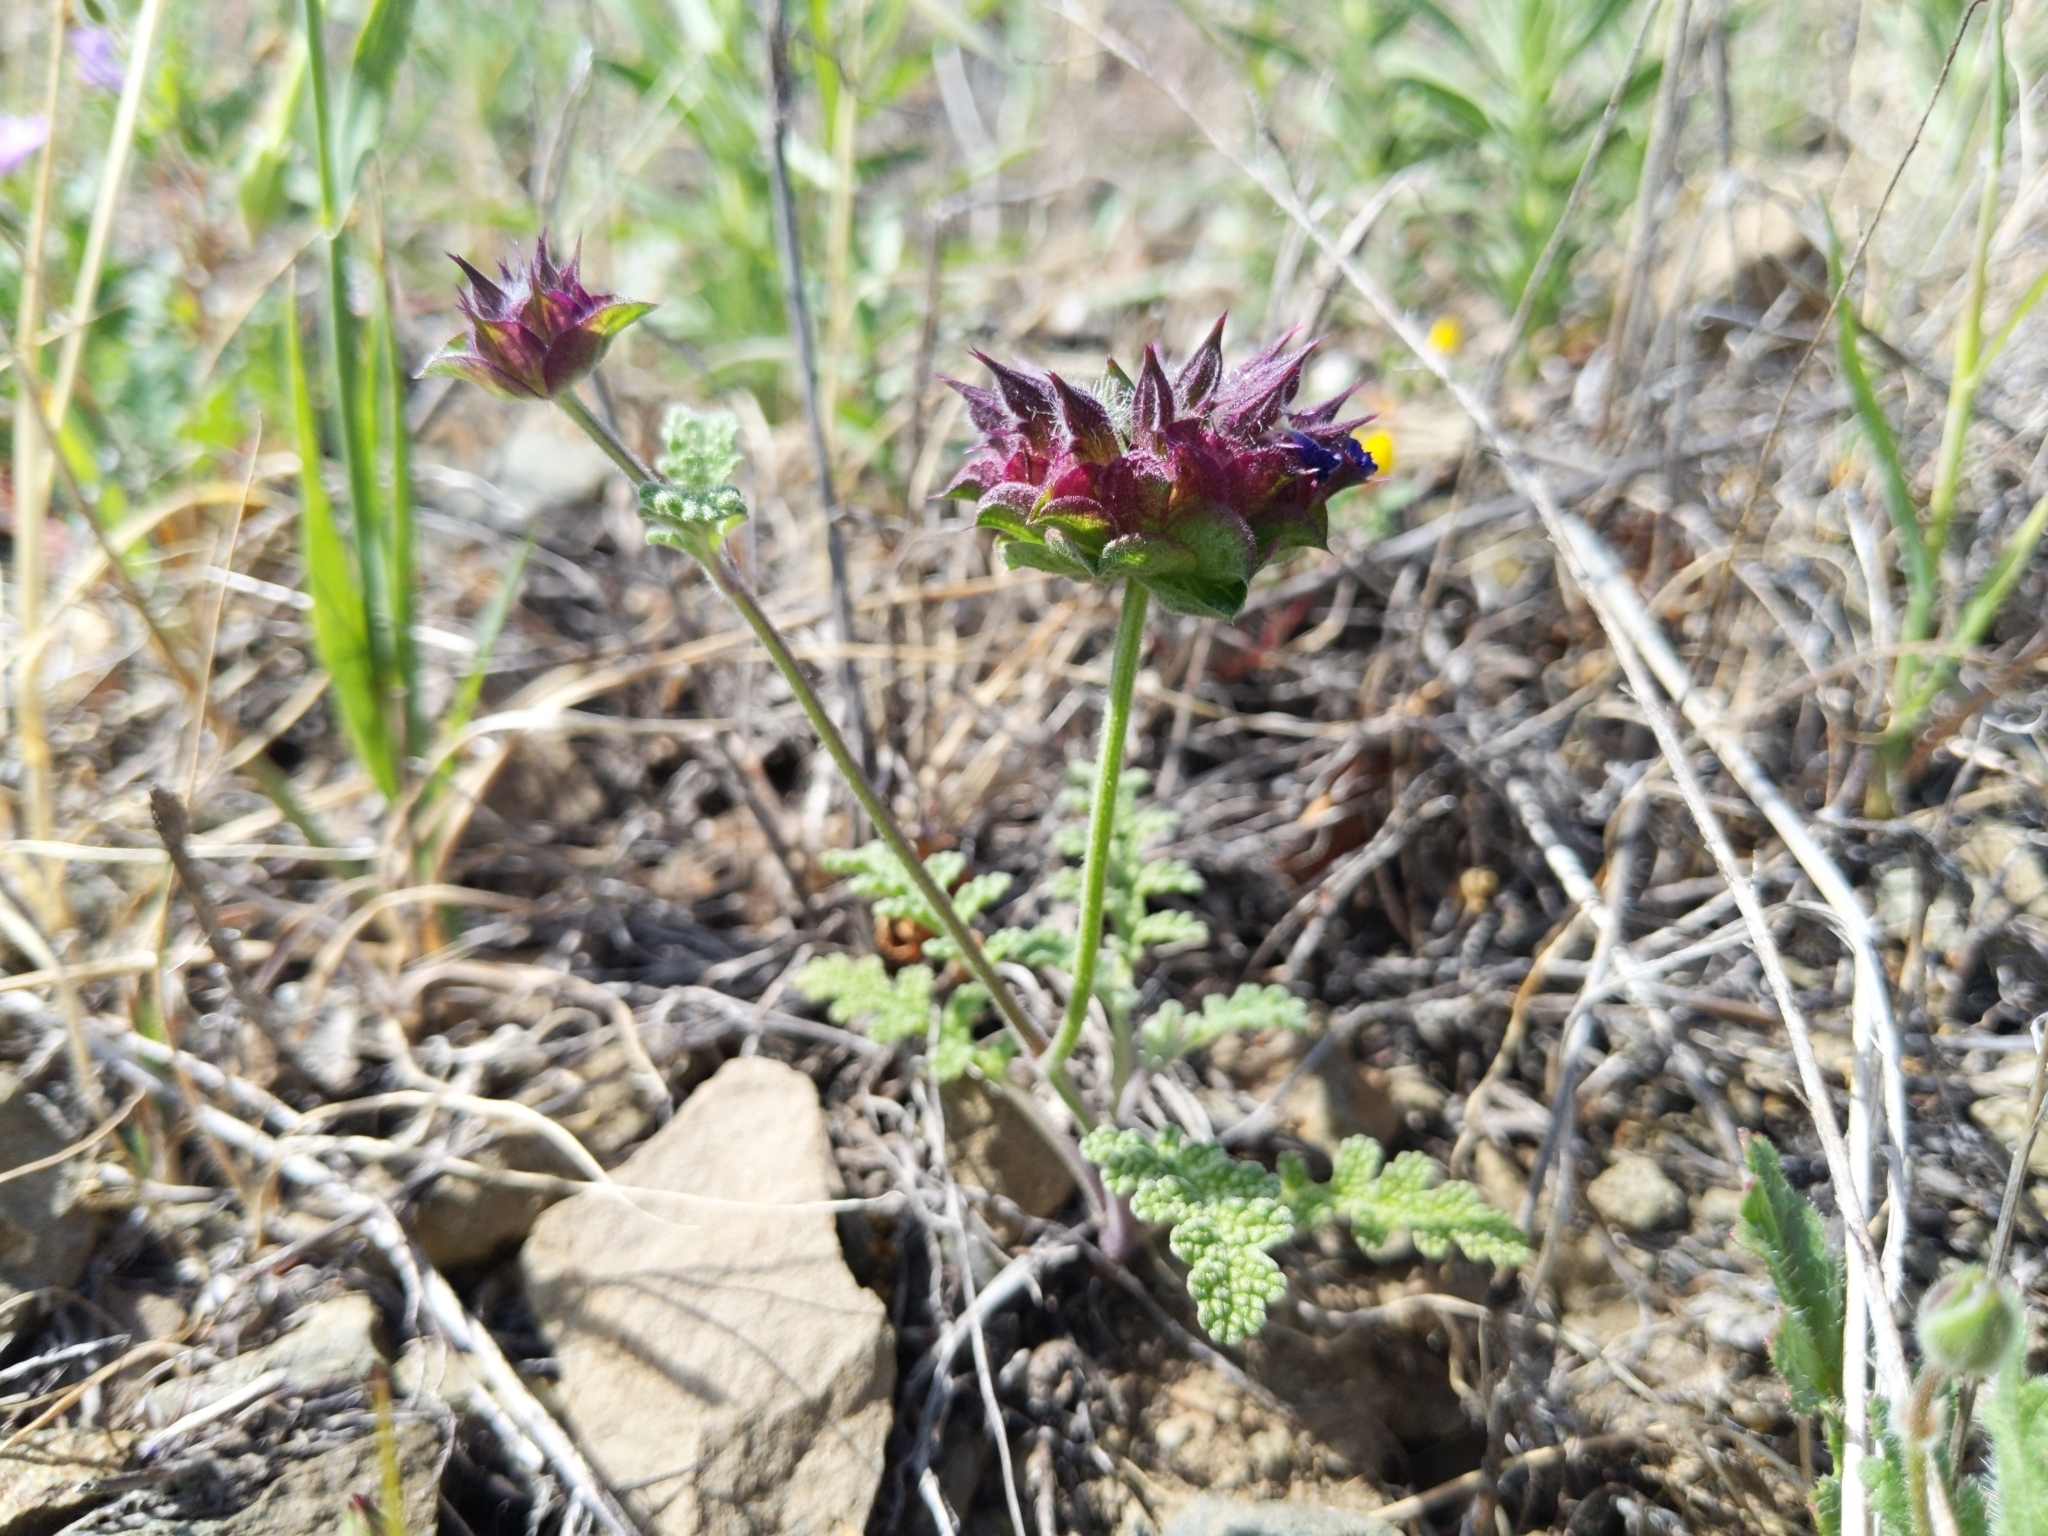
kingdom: Plantae
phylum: Tracheophyta
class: Magnoliopsida
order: Lamiales
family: Lamiaceae
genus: Salvia
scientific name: Salvia columbariae
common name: Chia
